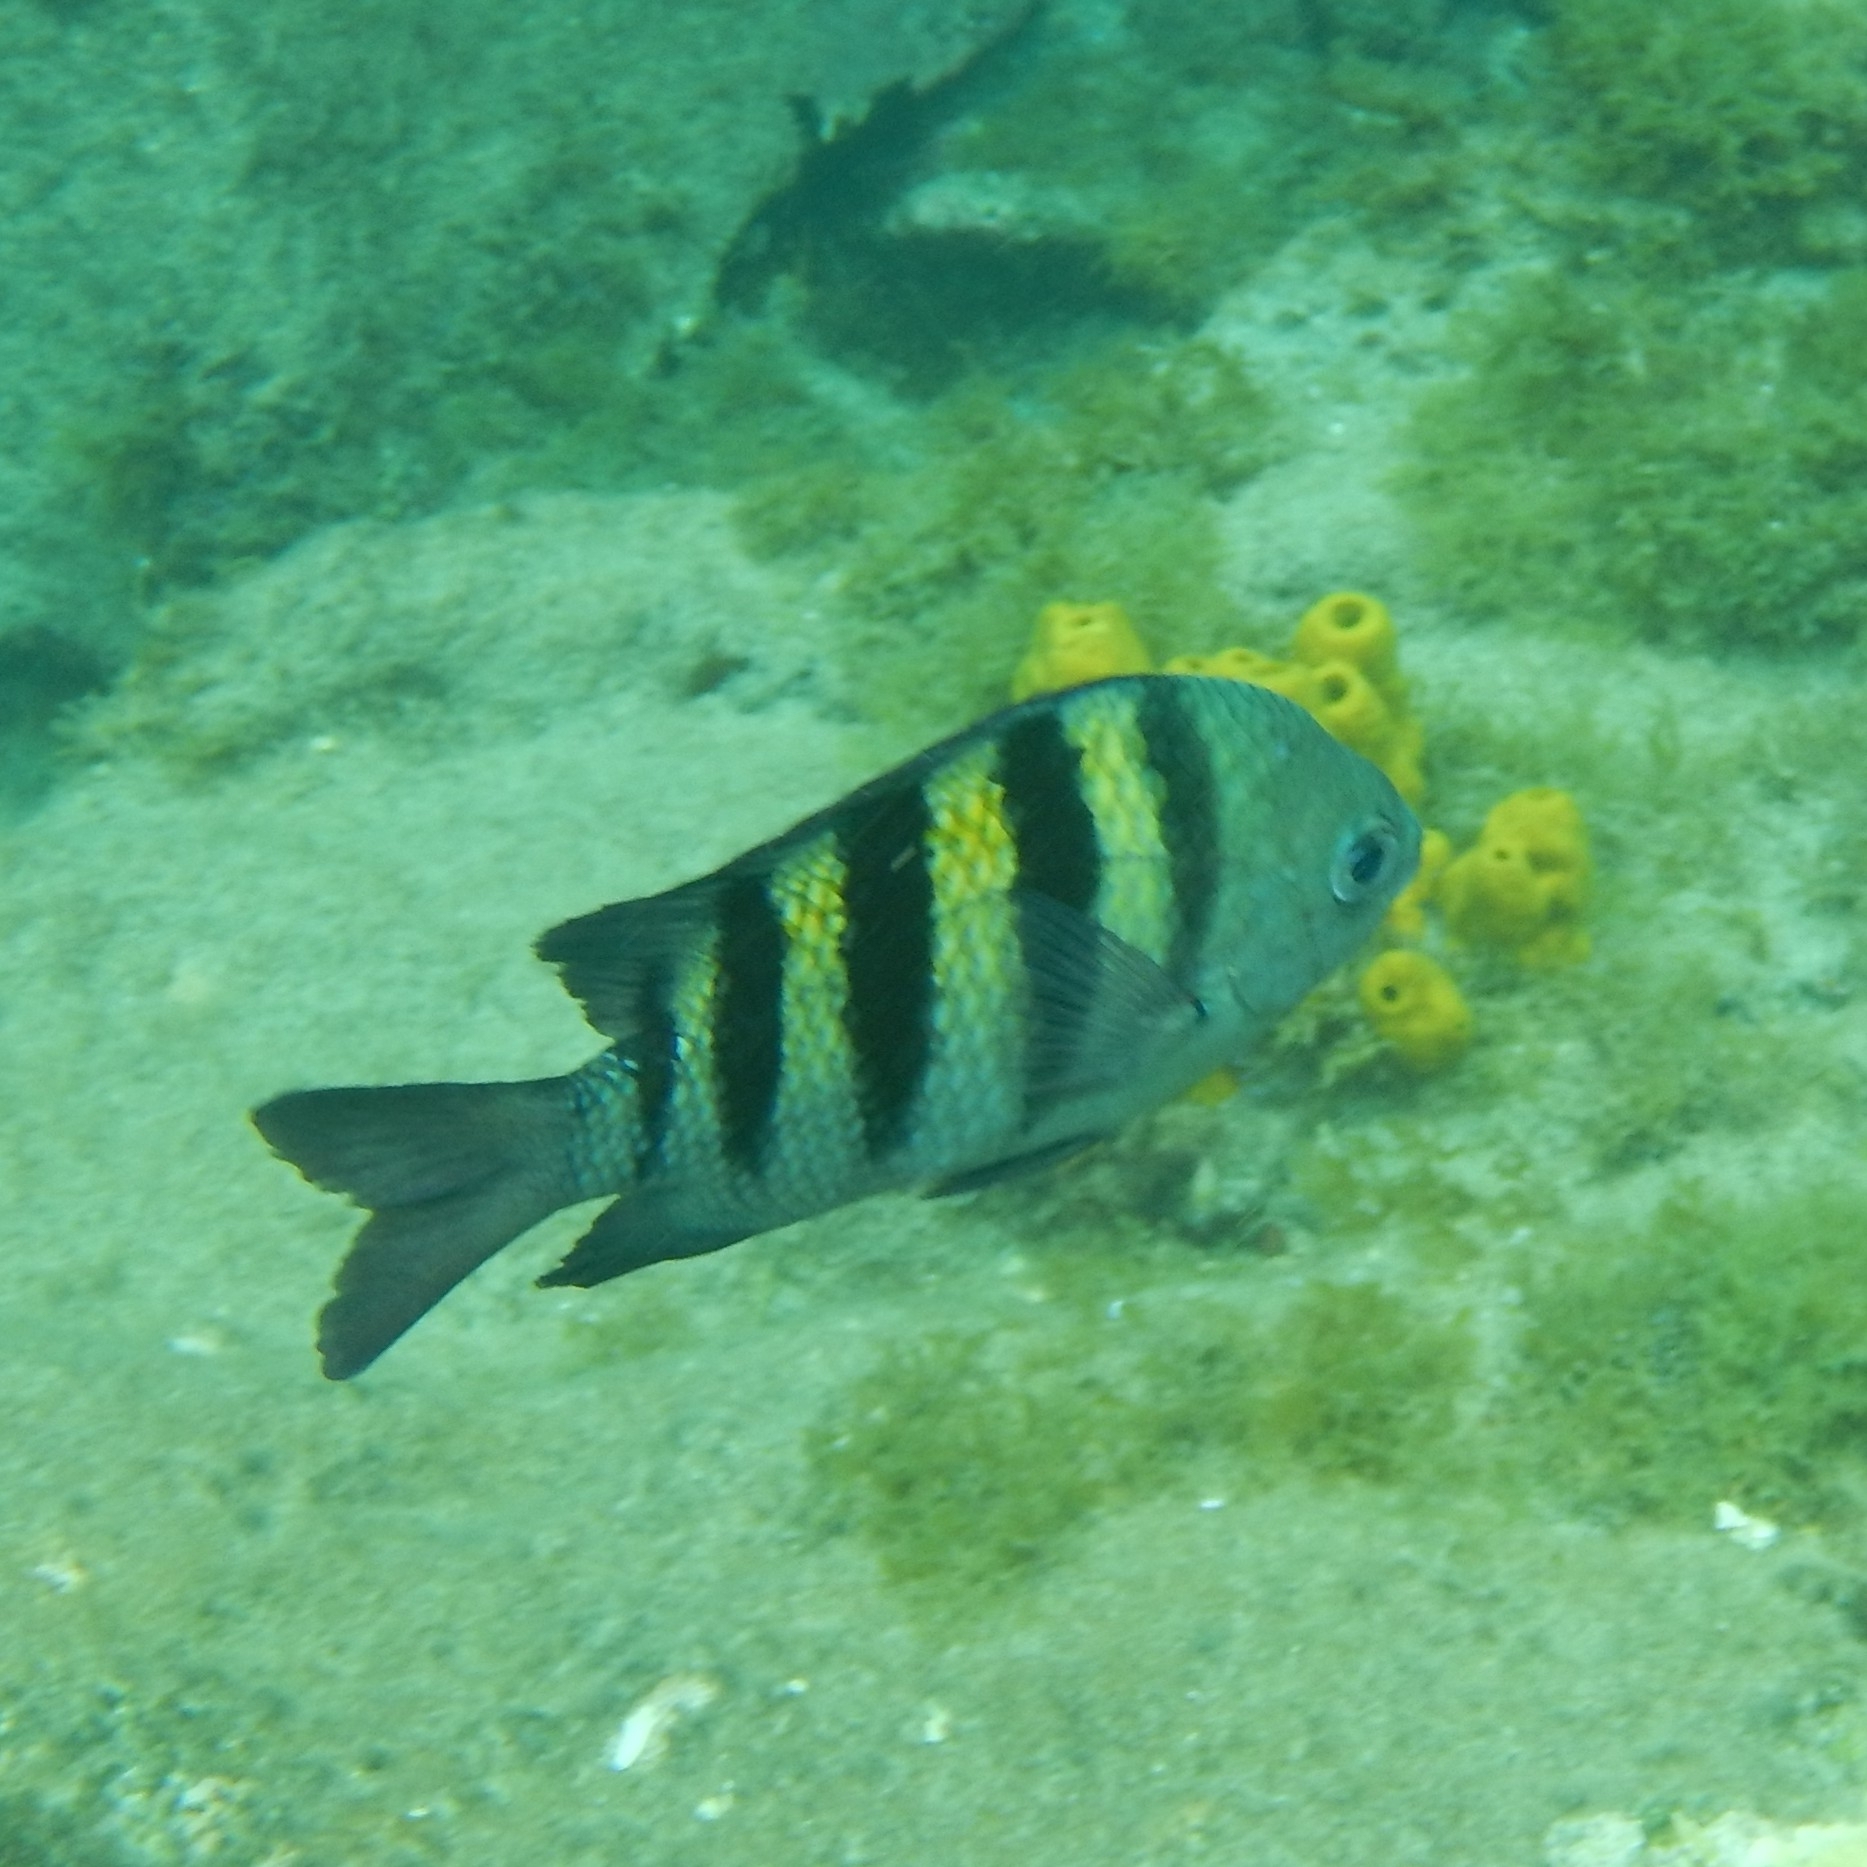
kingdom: Animalia
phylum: Chordata
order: Perciformes
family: Pomacentridae
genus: Abudefduf
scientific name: Abudefduf saxatilis
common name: Sergeant major
